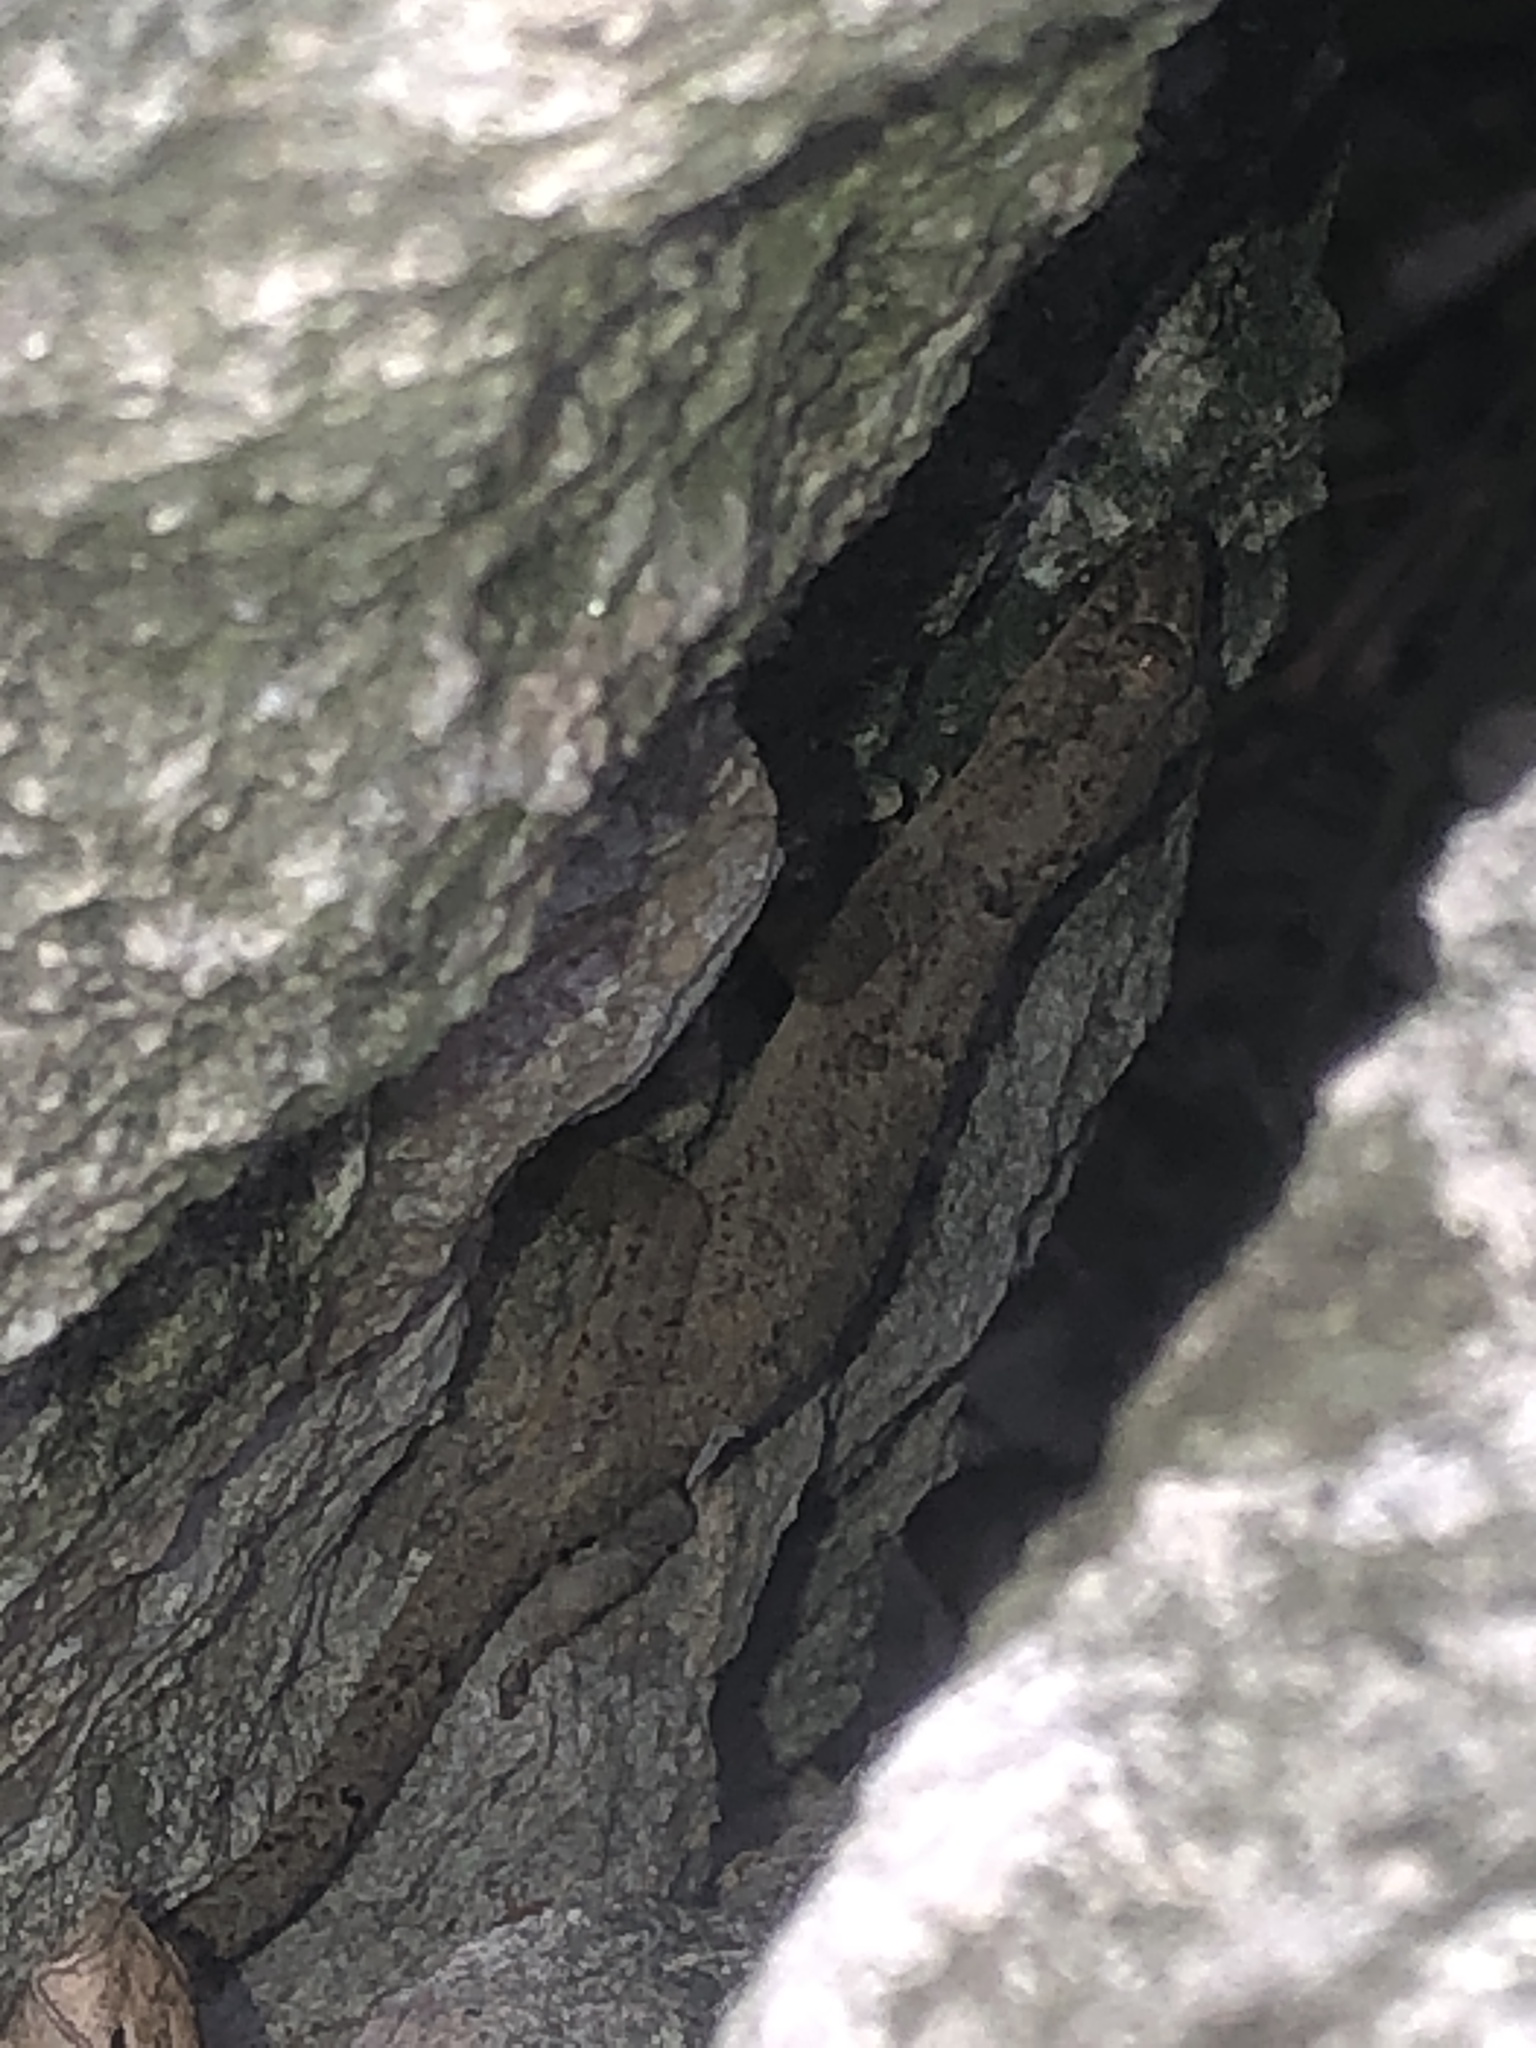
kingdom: Animalia
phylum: Chordata
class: Squamata
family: Gekkonidae
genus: Hemidactylus
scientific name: Hemidactylus mabouia
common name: House gecko
